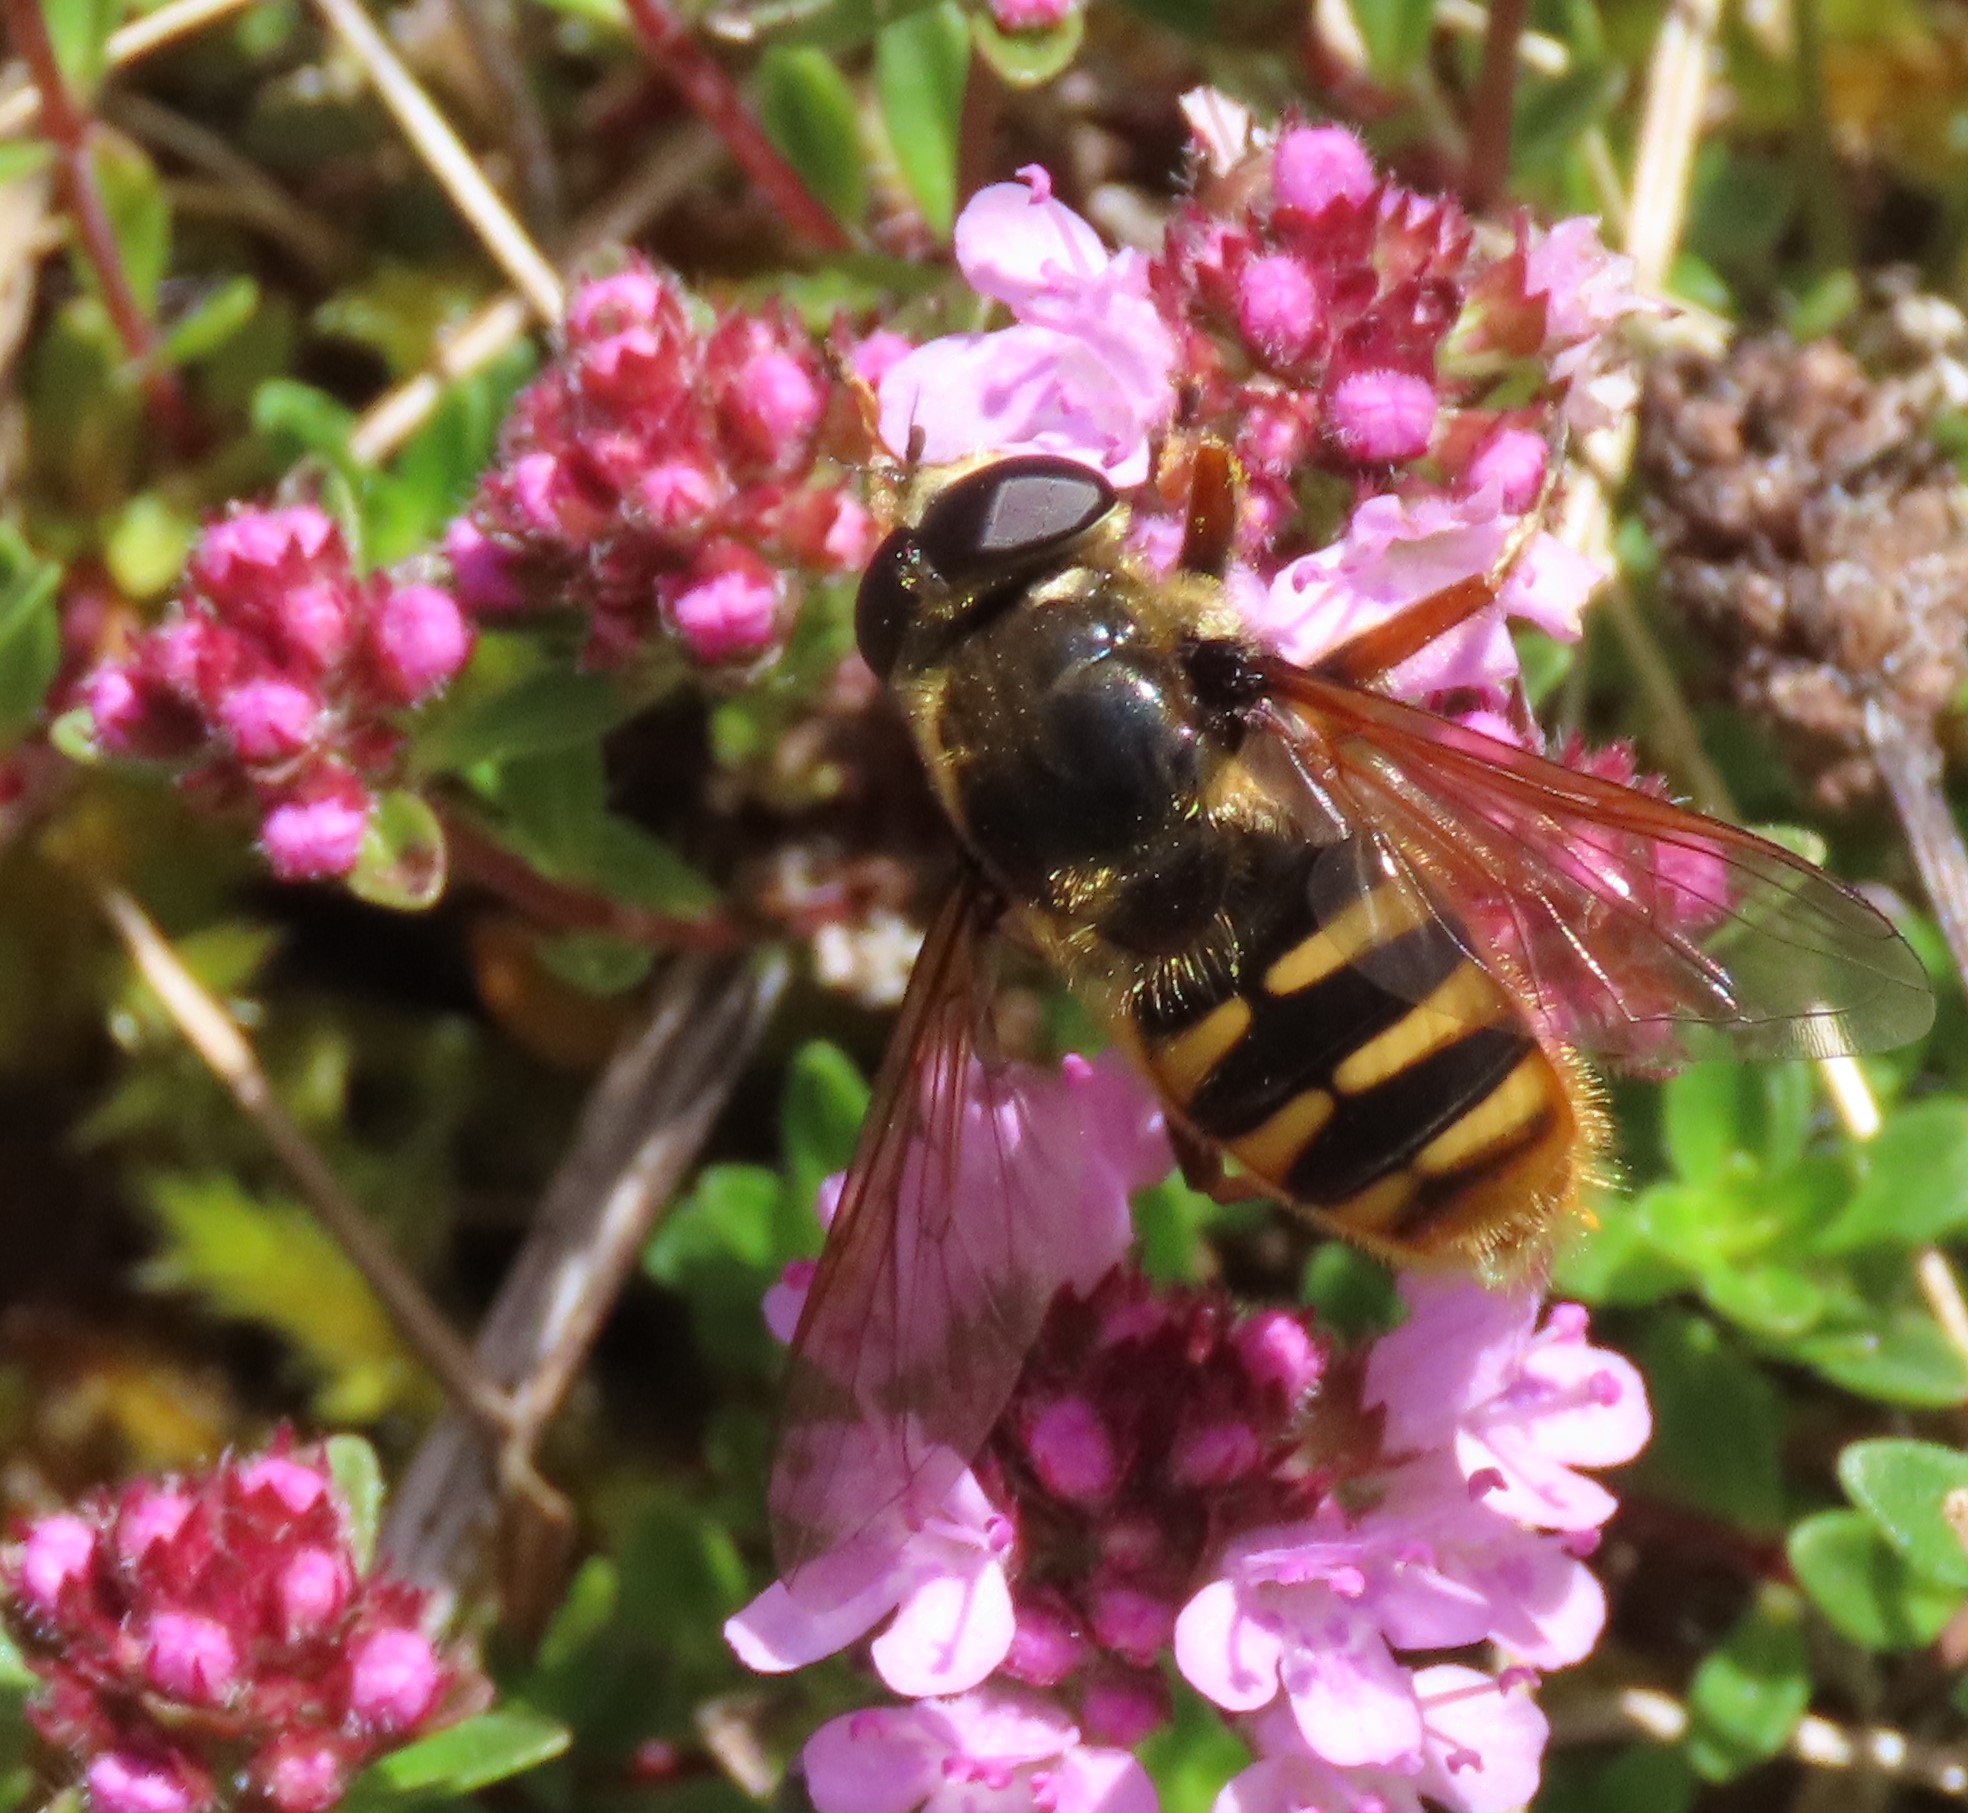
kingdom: Animalia
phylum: Arthropoda
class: Insecta
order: Diptera
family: Syrphidae
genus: Sericomyia
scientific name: Sericomyia silentis
